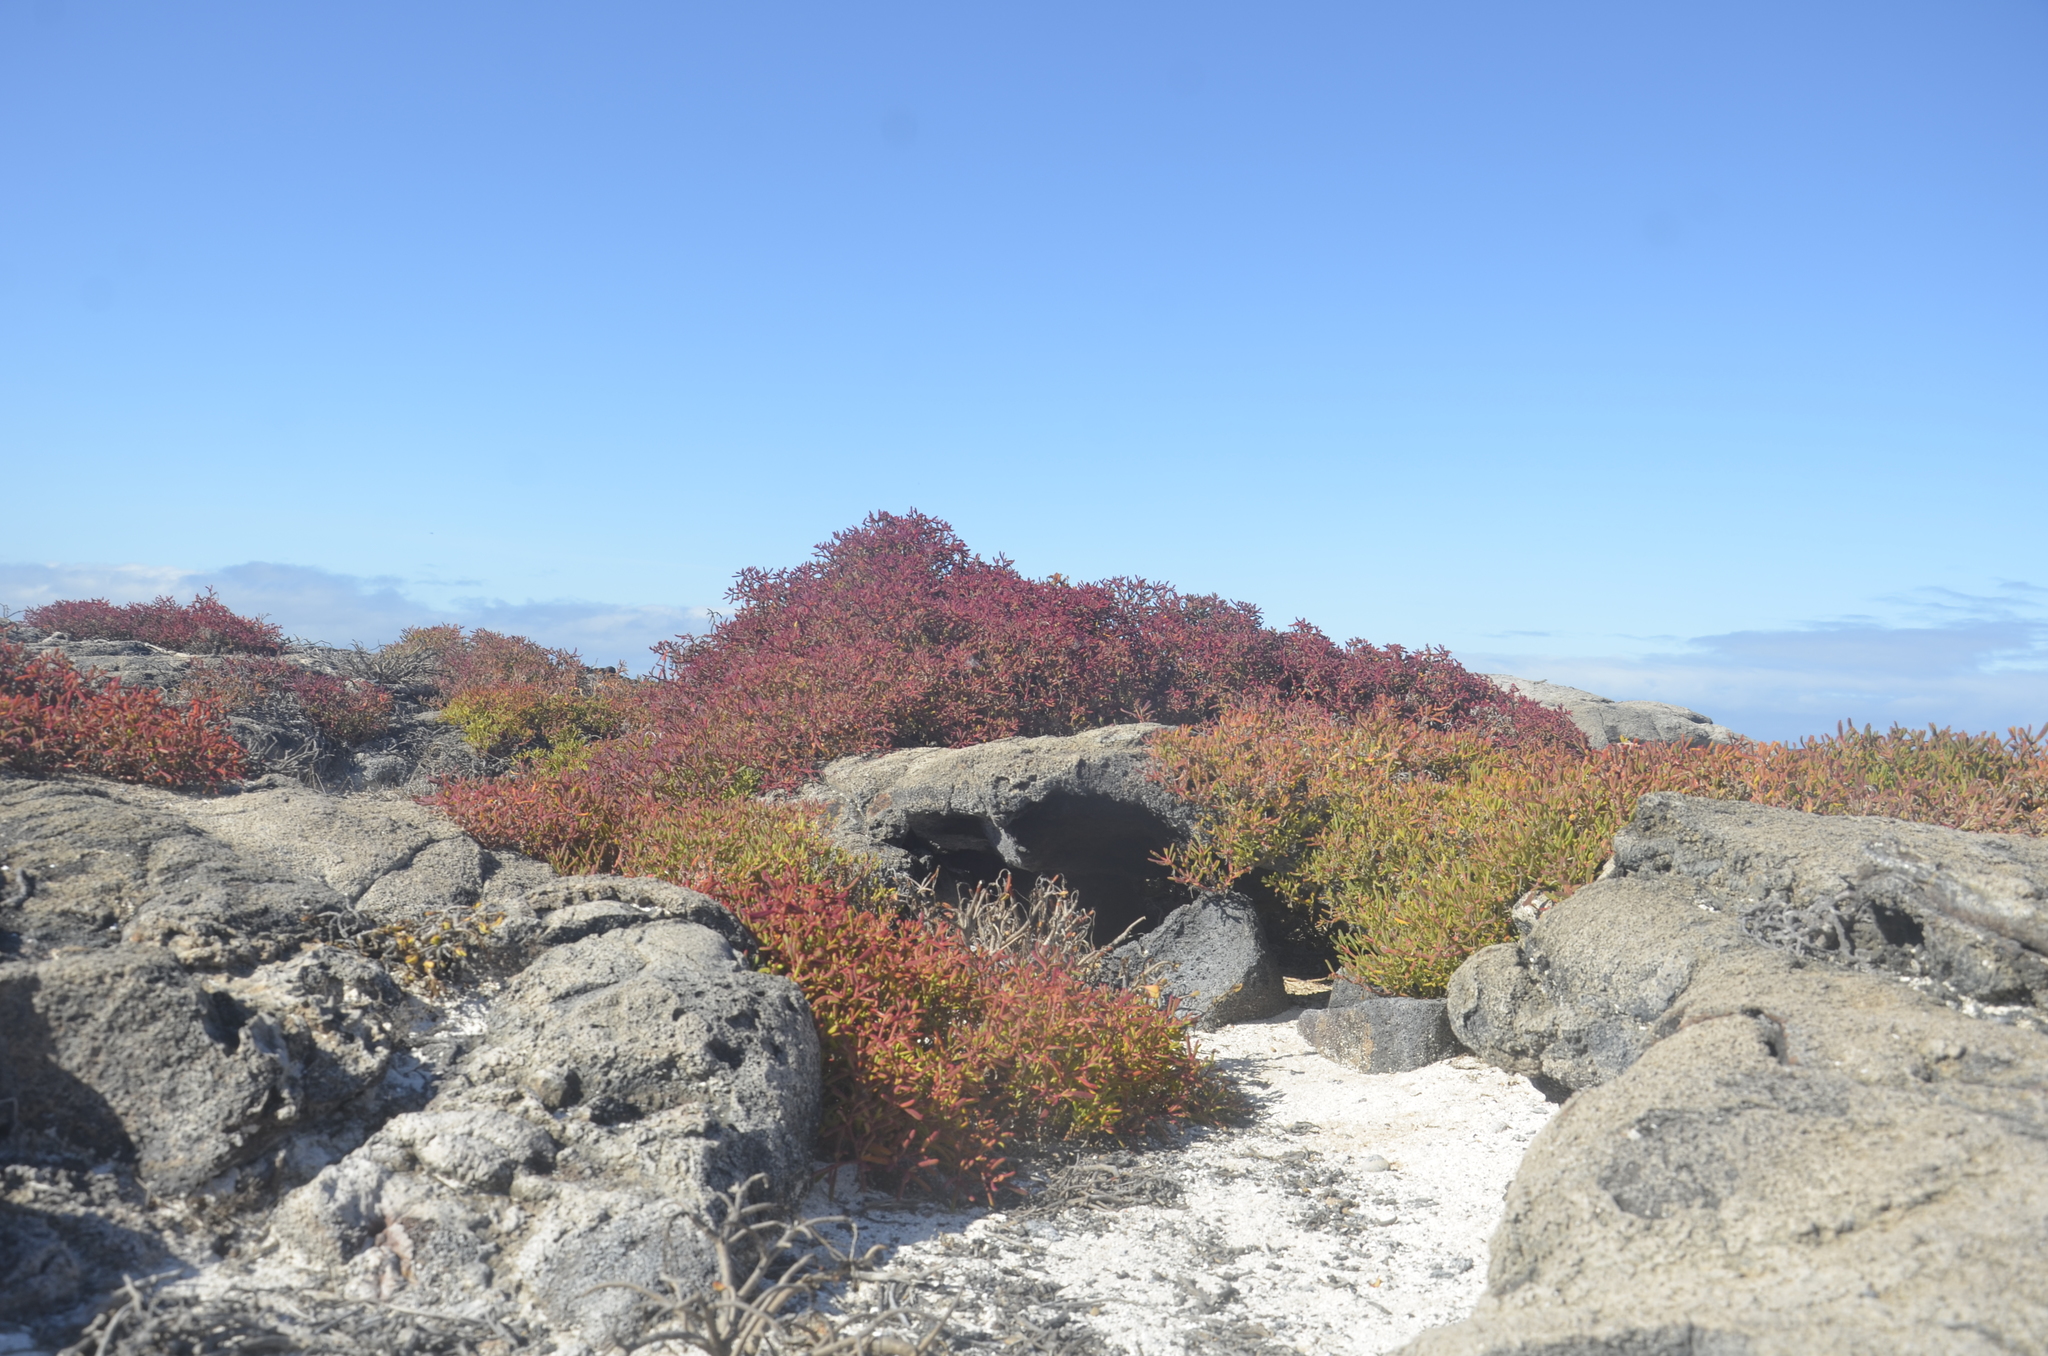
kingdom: Plantae
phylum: Tracheophyta
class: Magnoliopsida
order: Caryophyllales
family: Aizoaceae
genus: Sesuvium
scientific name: Sesuvium edmonstonei
